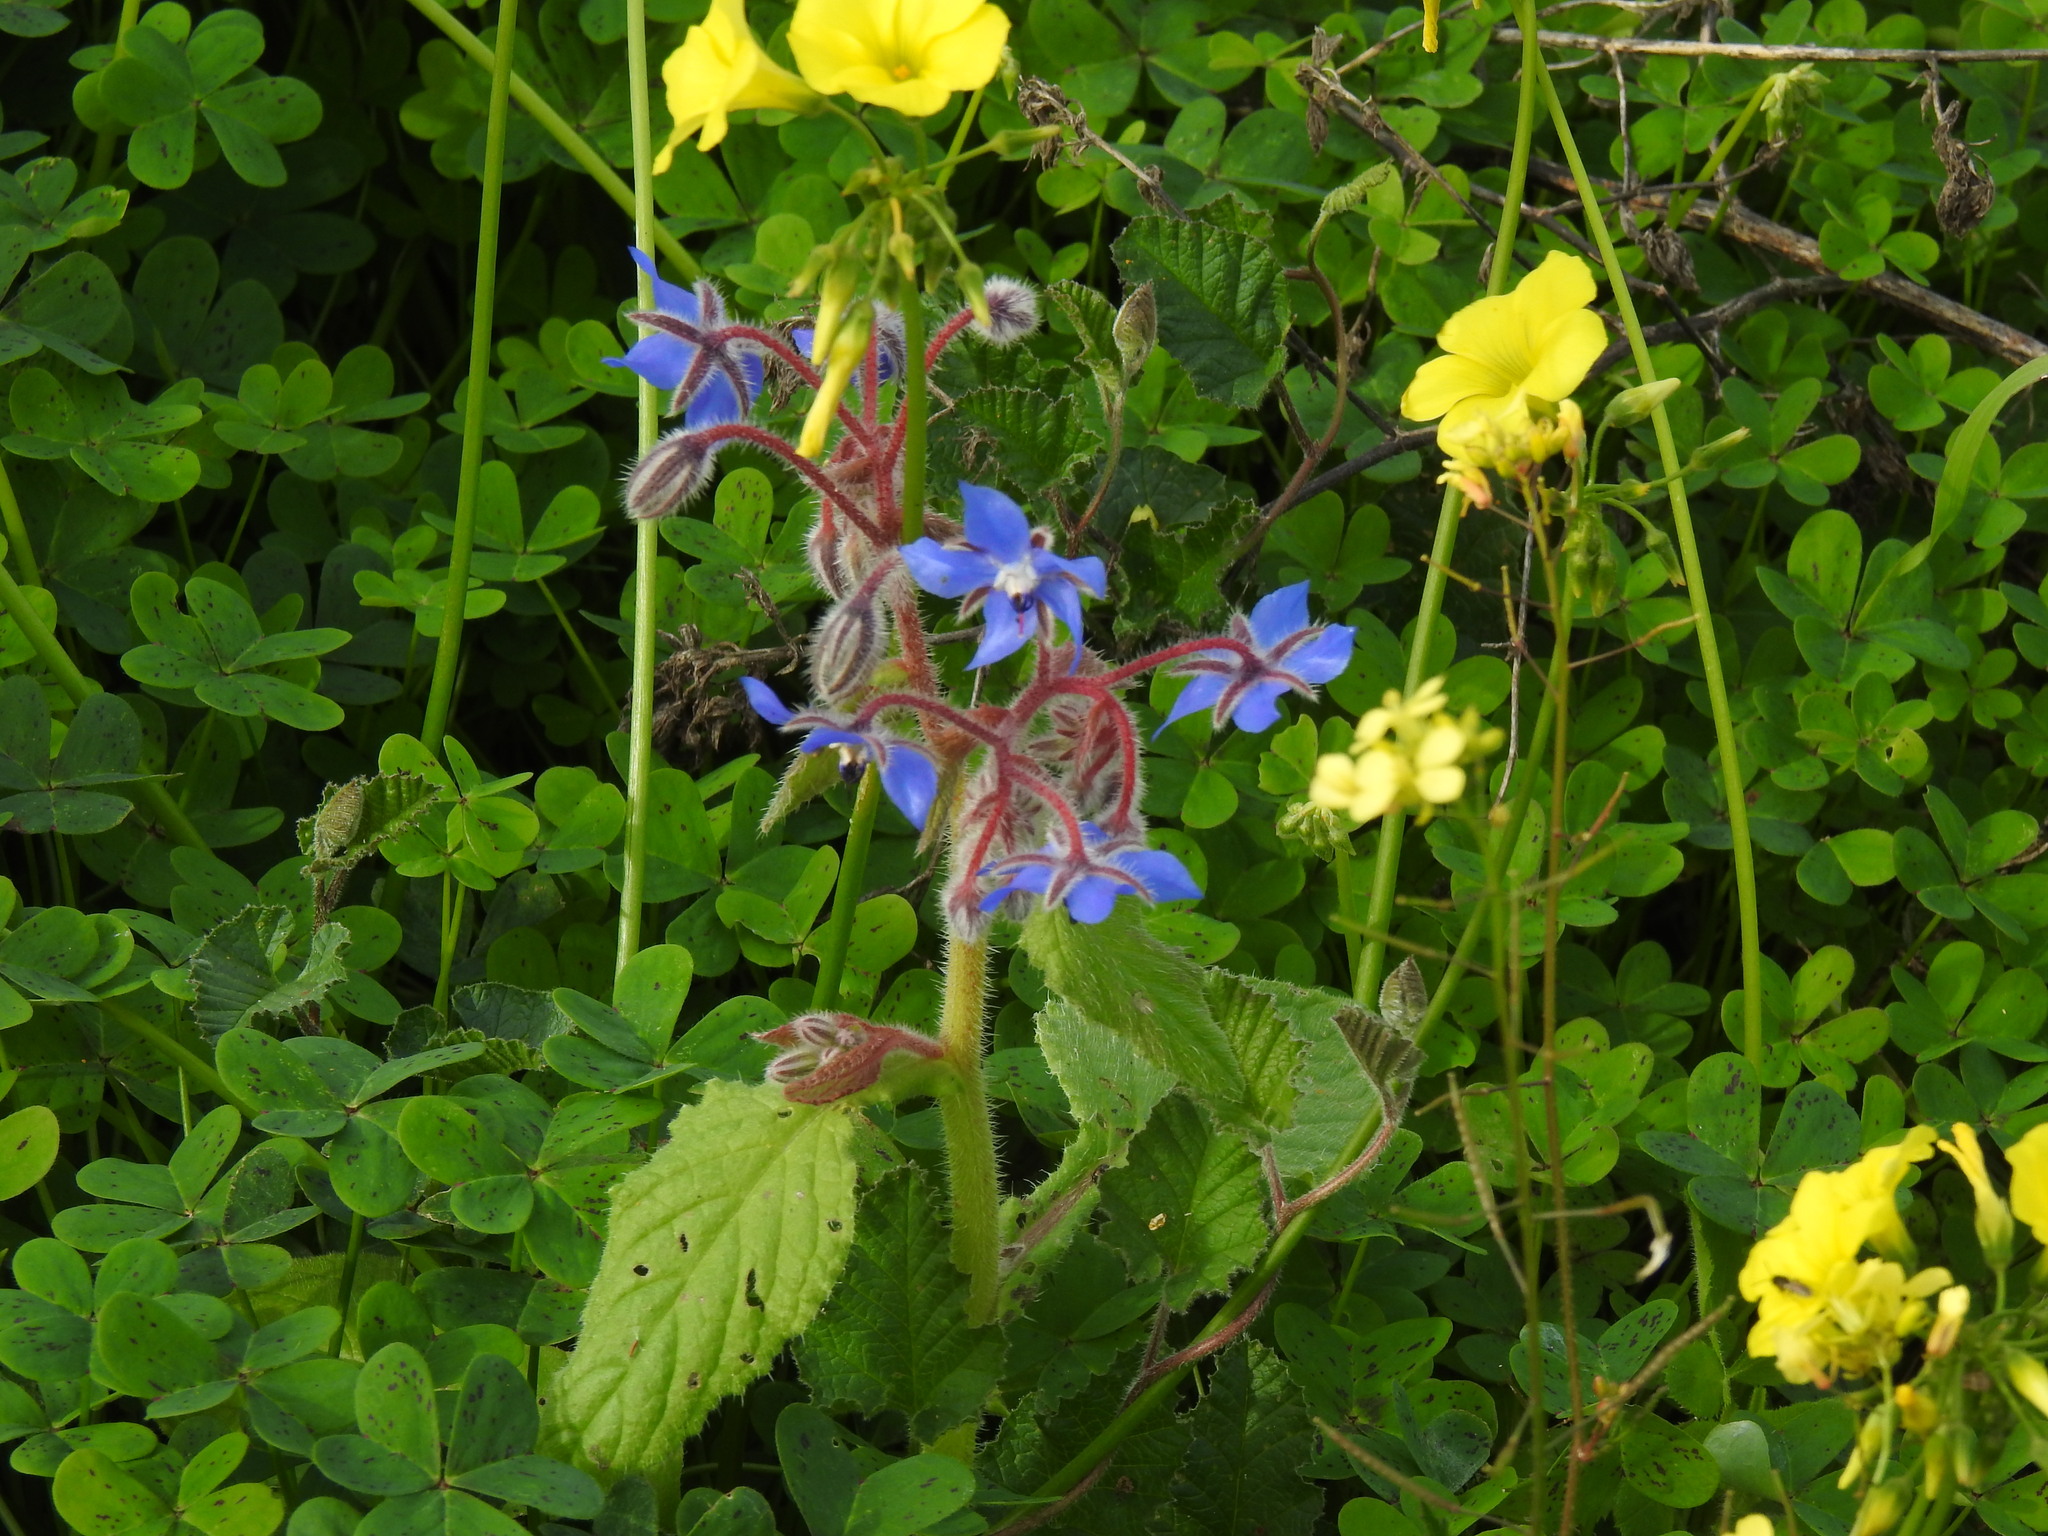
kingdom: Plantae
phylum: Tracheophyta
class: Magnoliopsida
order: Boraginales
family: Boraginaceae
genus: Borago
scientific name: Borago officinalis
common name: Borage
